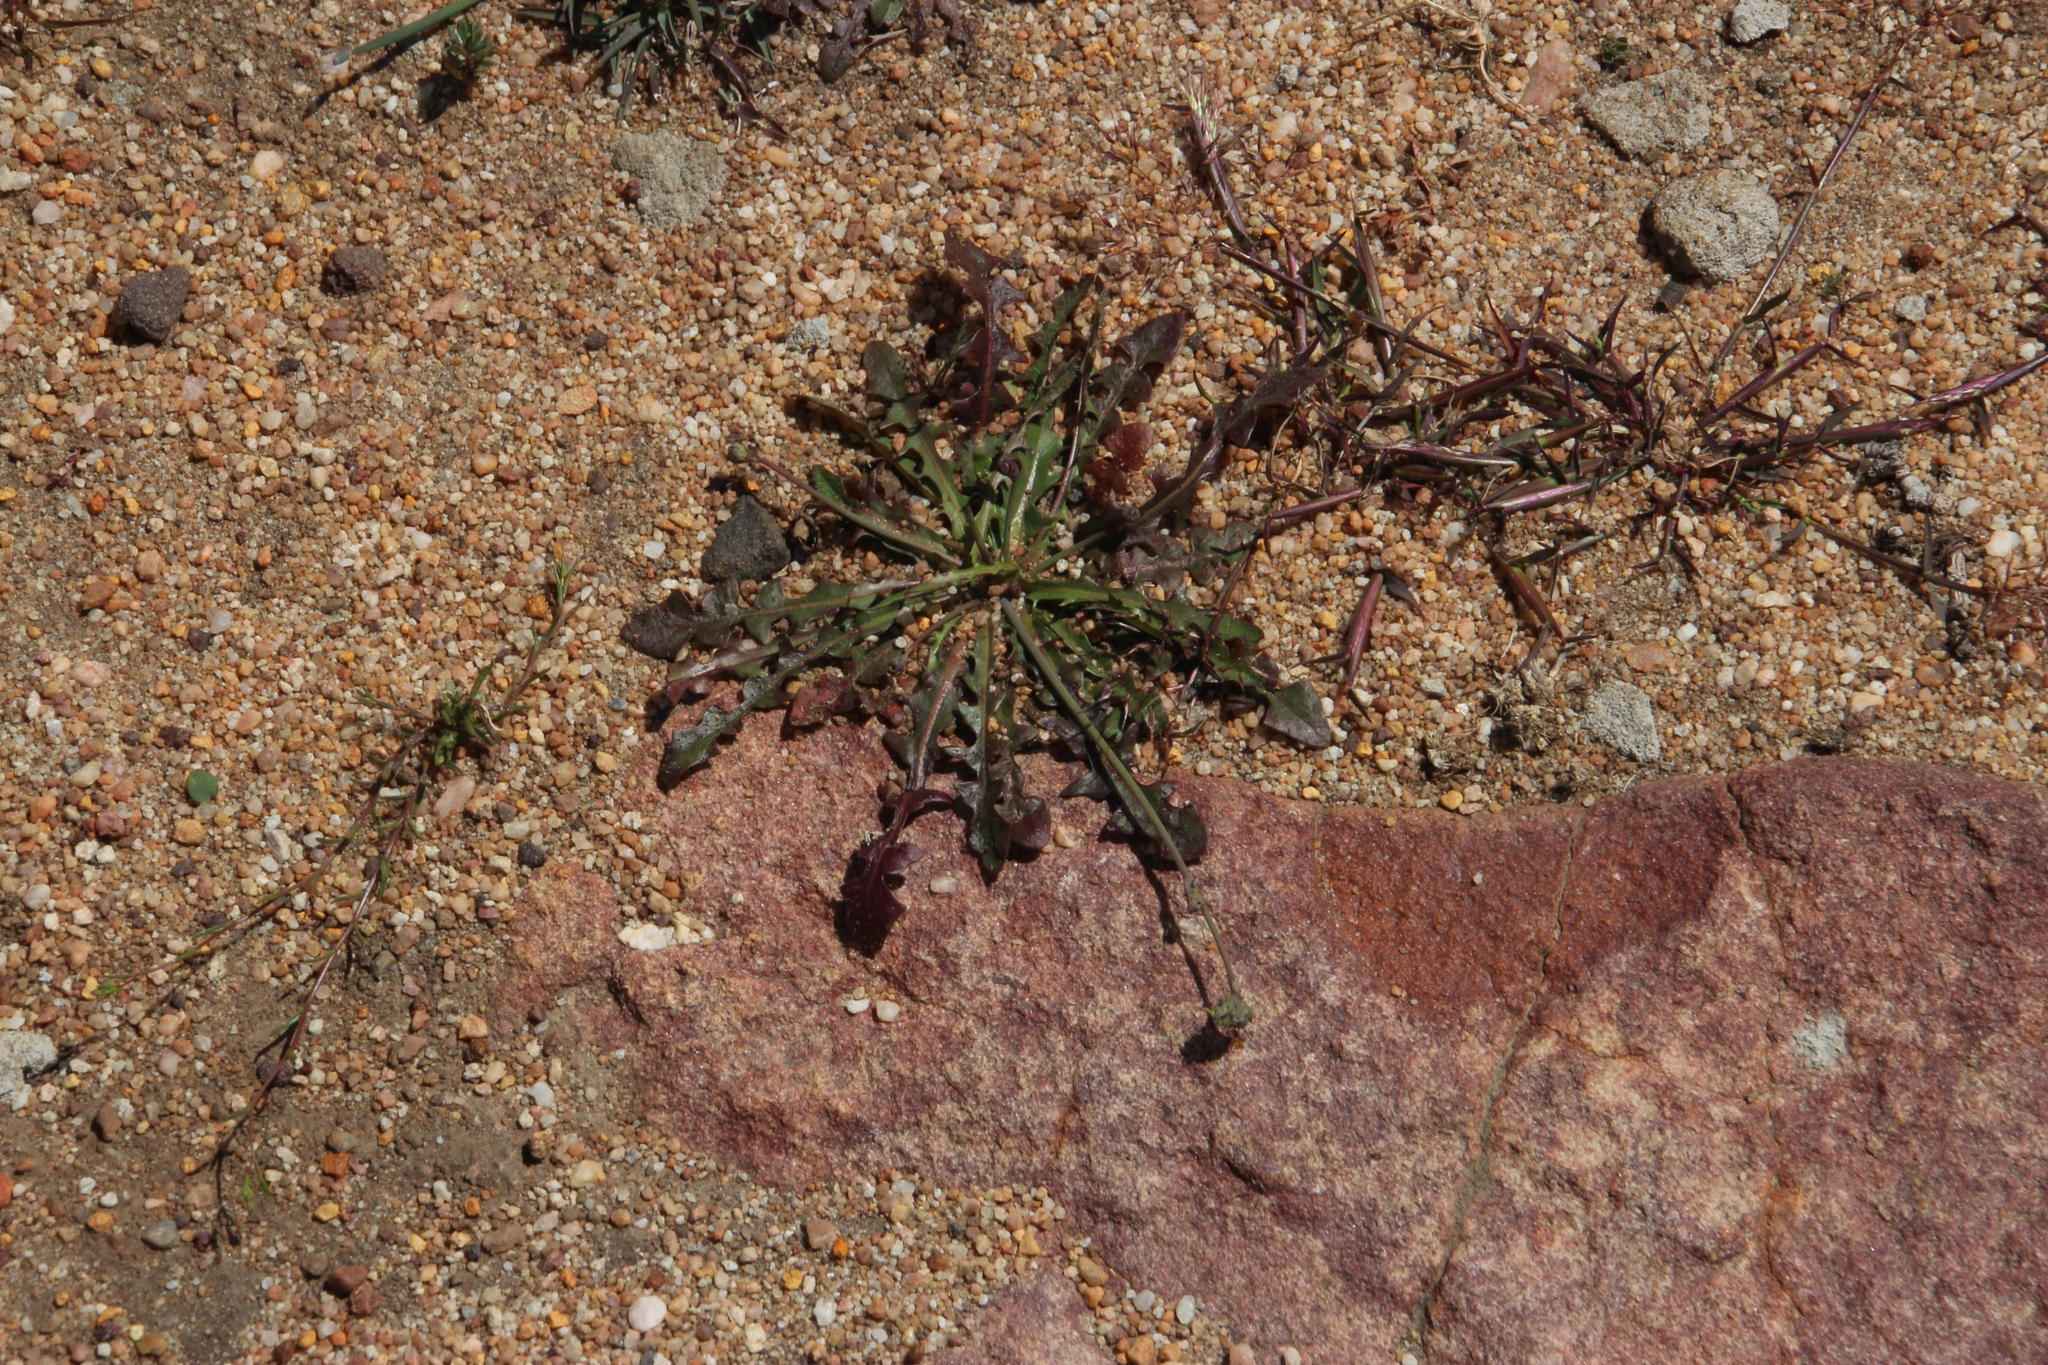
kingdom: Plantae
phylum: Tracheophyta
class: Magnoliopsida
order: Asterales
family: Asteraceae
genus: Hypochaeris
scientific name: Hypochaeris radicata
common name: Flatweed
